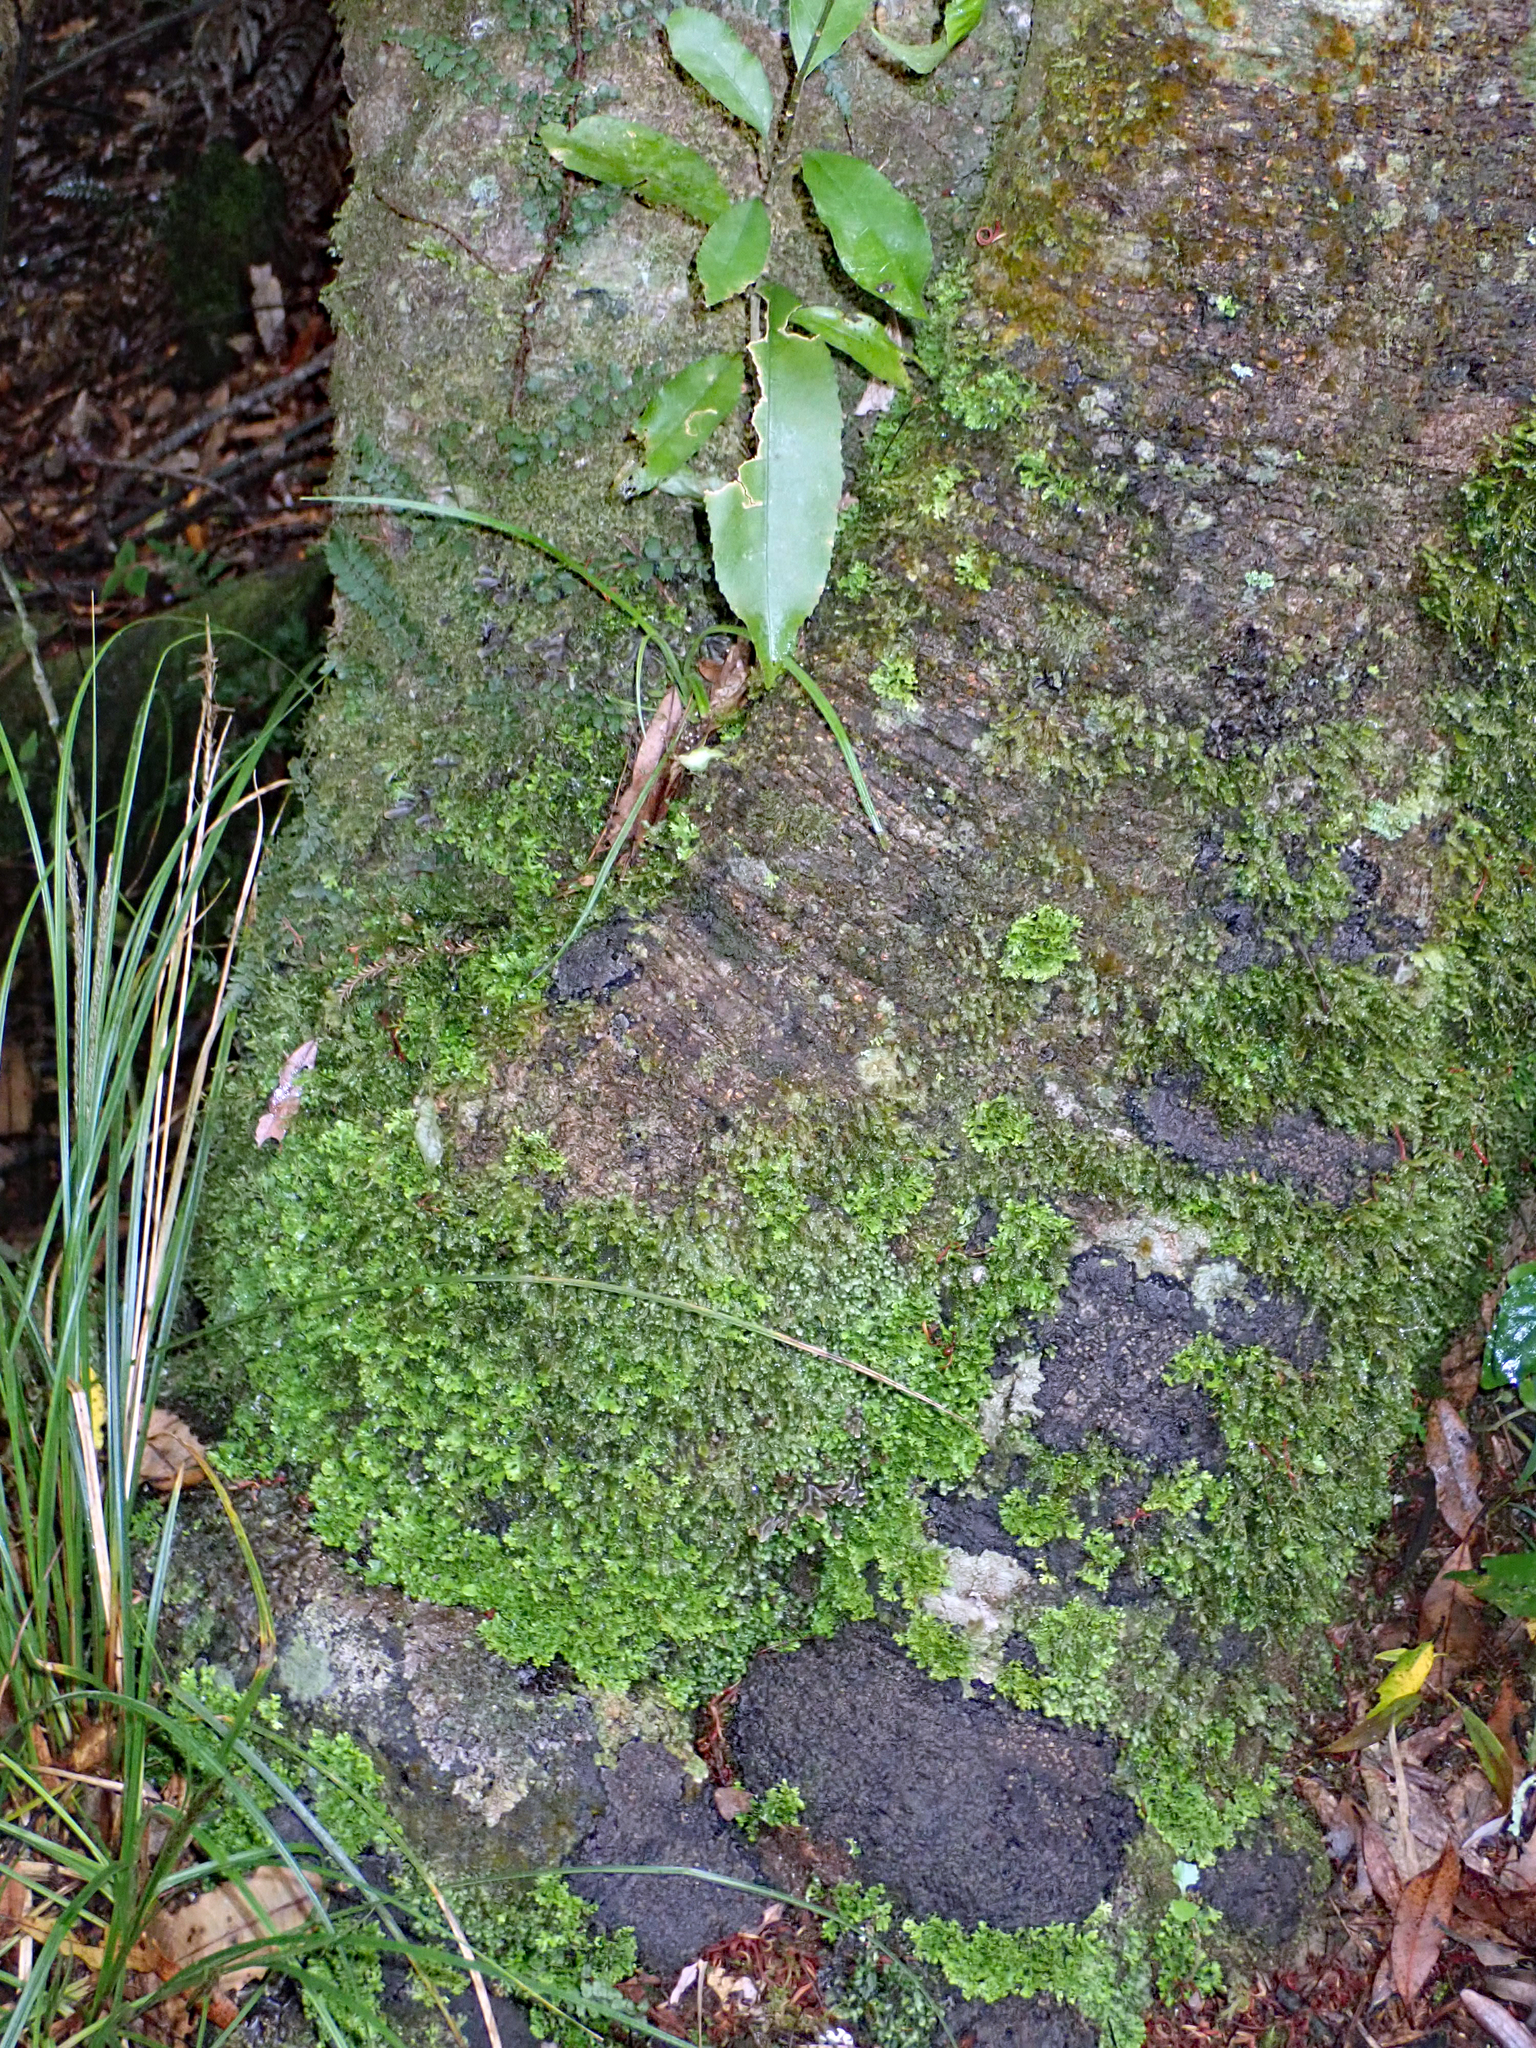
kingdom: Fungi
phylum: Ascomycota
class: Lecanoromycetes
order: Peltigerales
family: Lobariaceae
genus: Sticta
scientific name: Sticta
